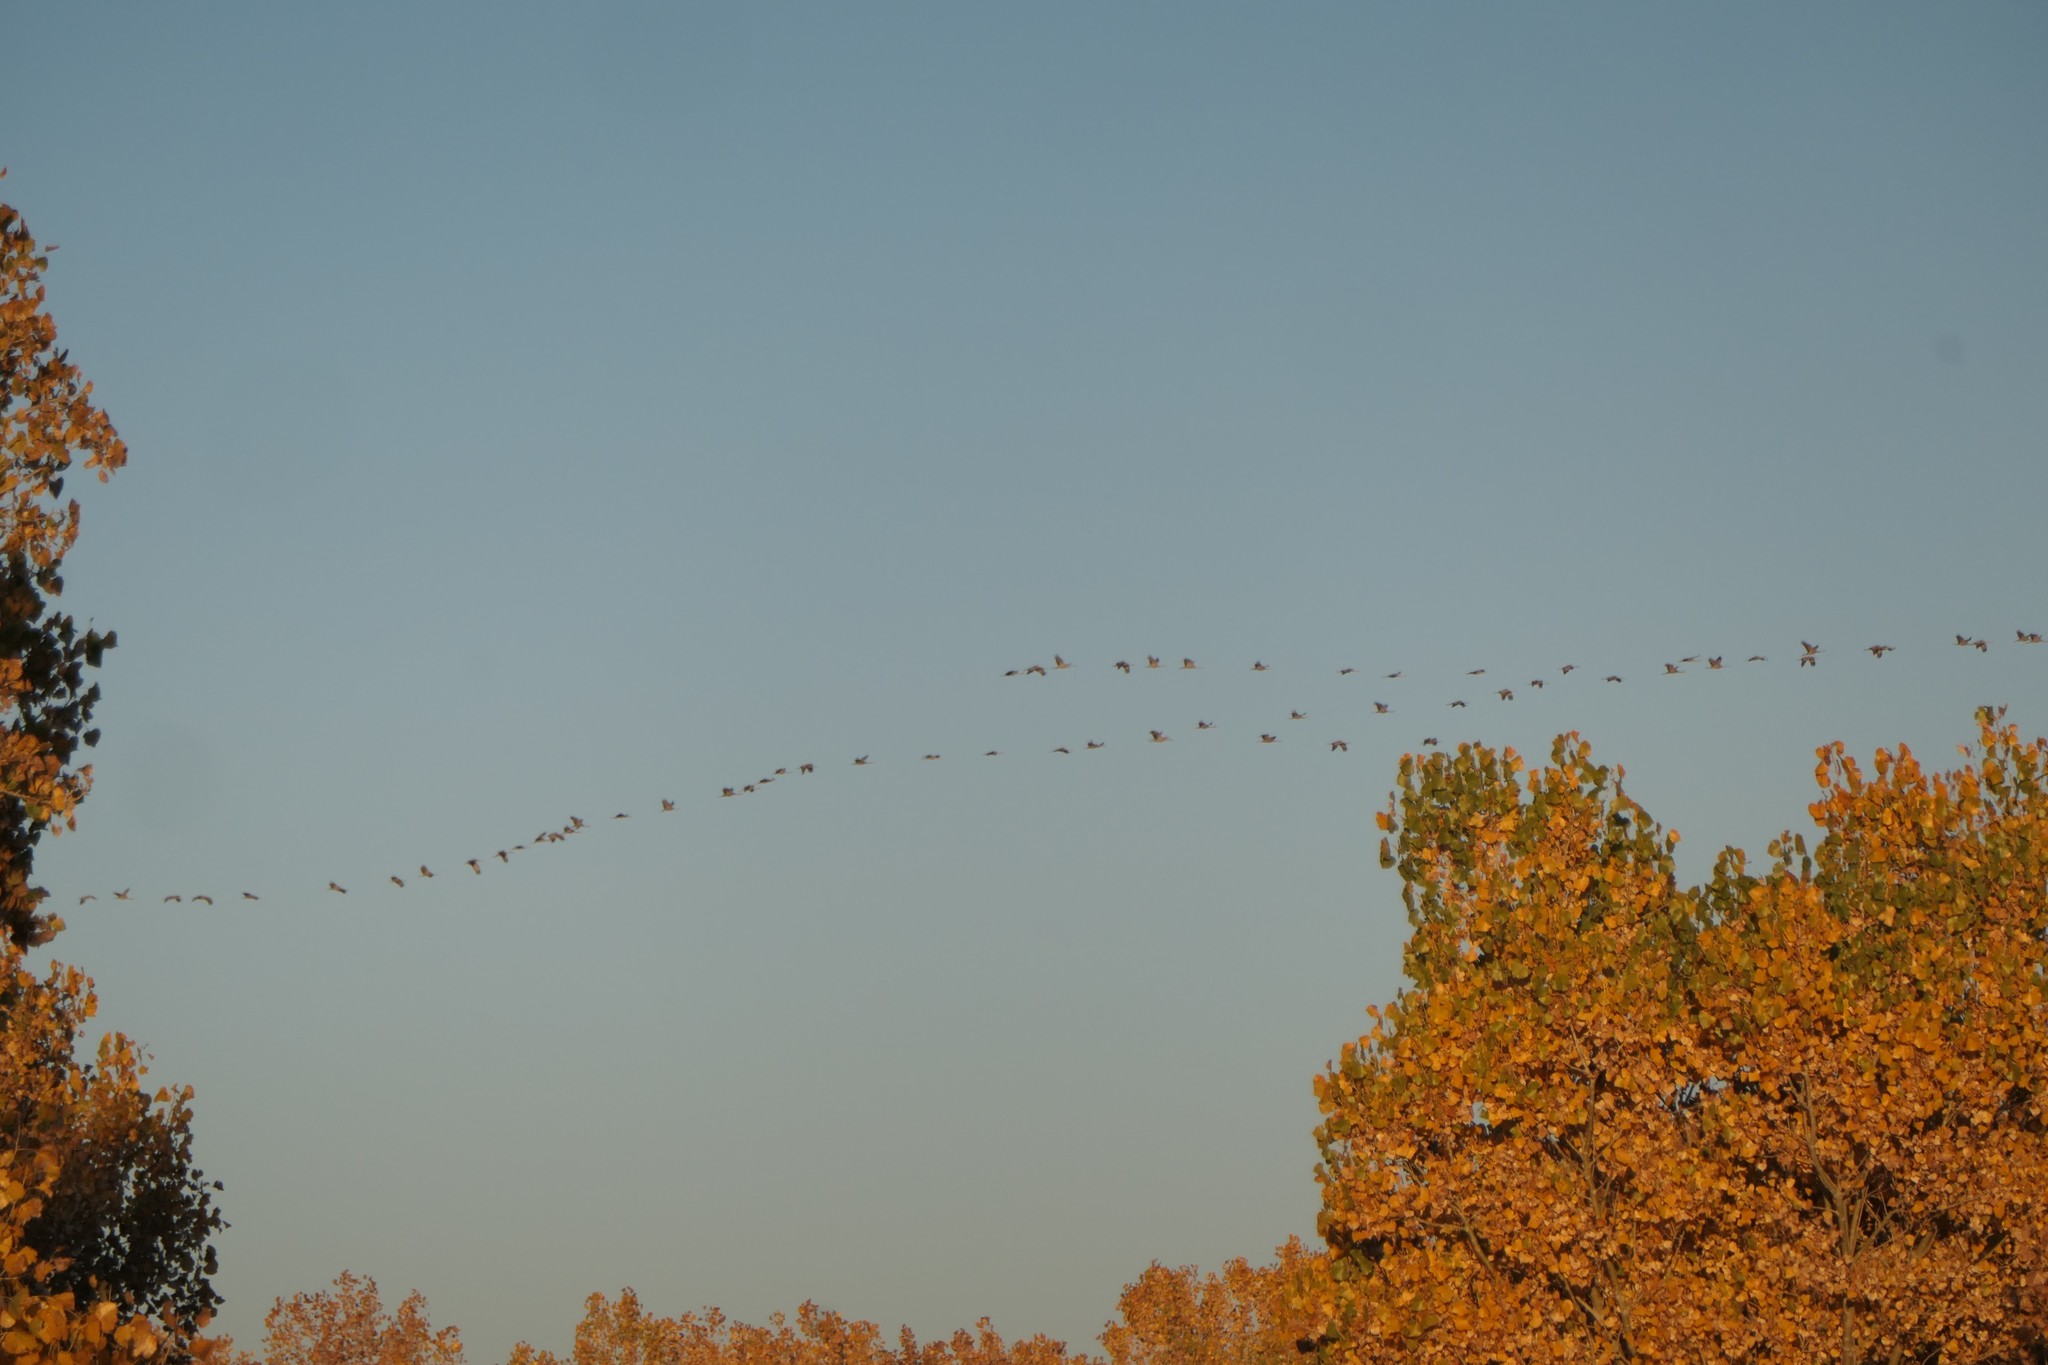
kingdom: Animalia
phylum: Chordata
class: Aves
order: Gruiformes
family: Gruidae
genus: Grus
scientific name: Grus canadensis
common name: Sandhill crane
